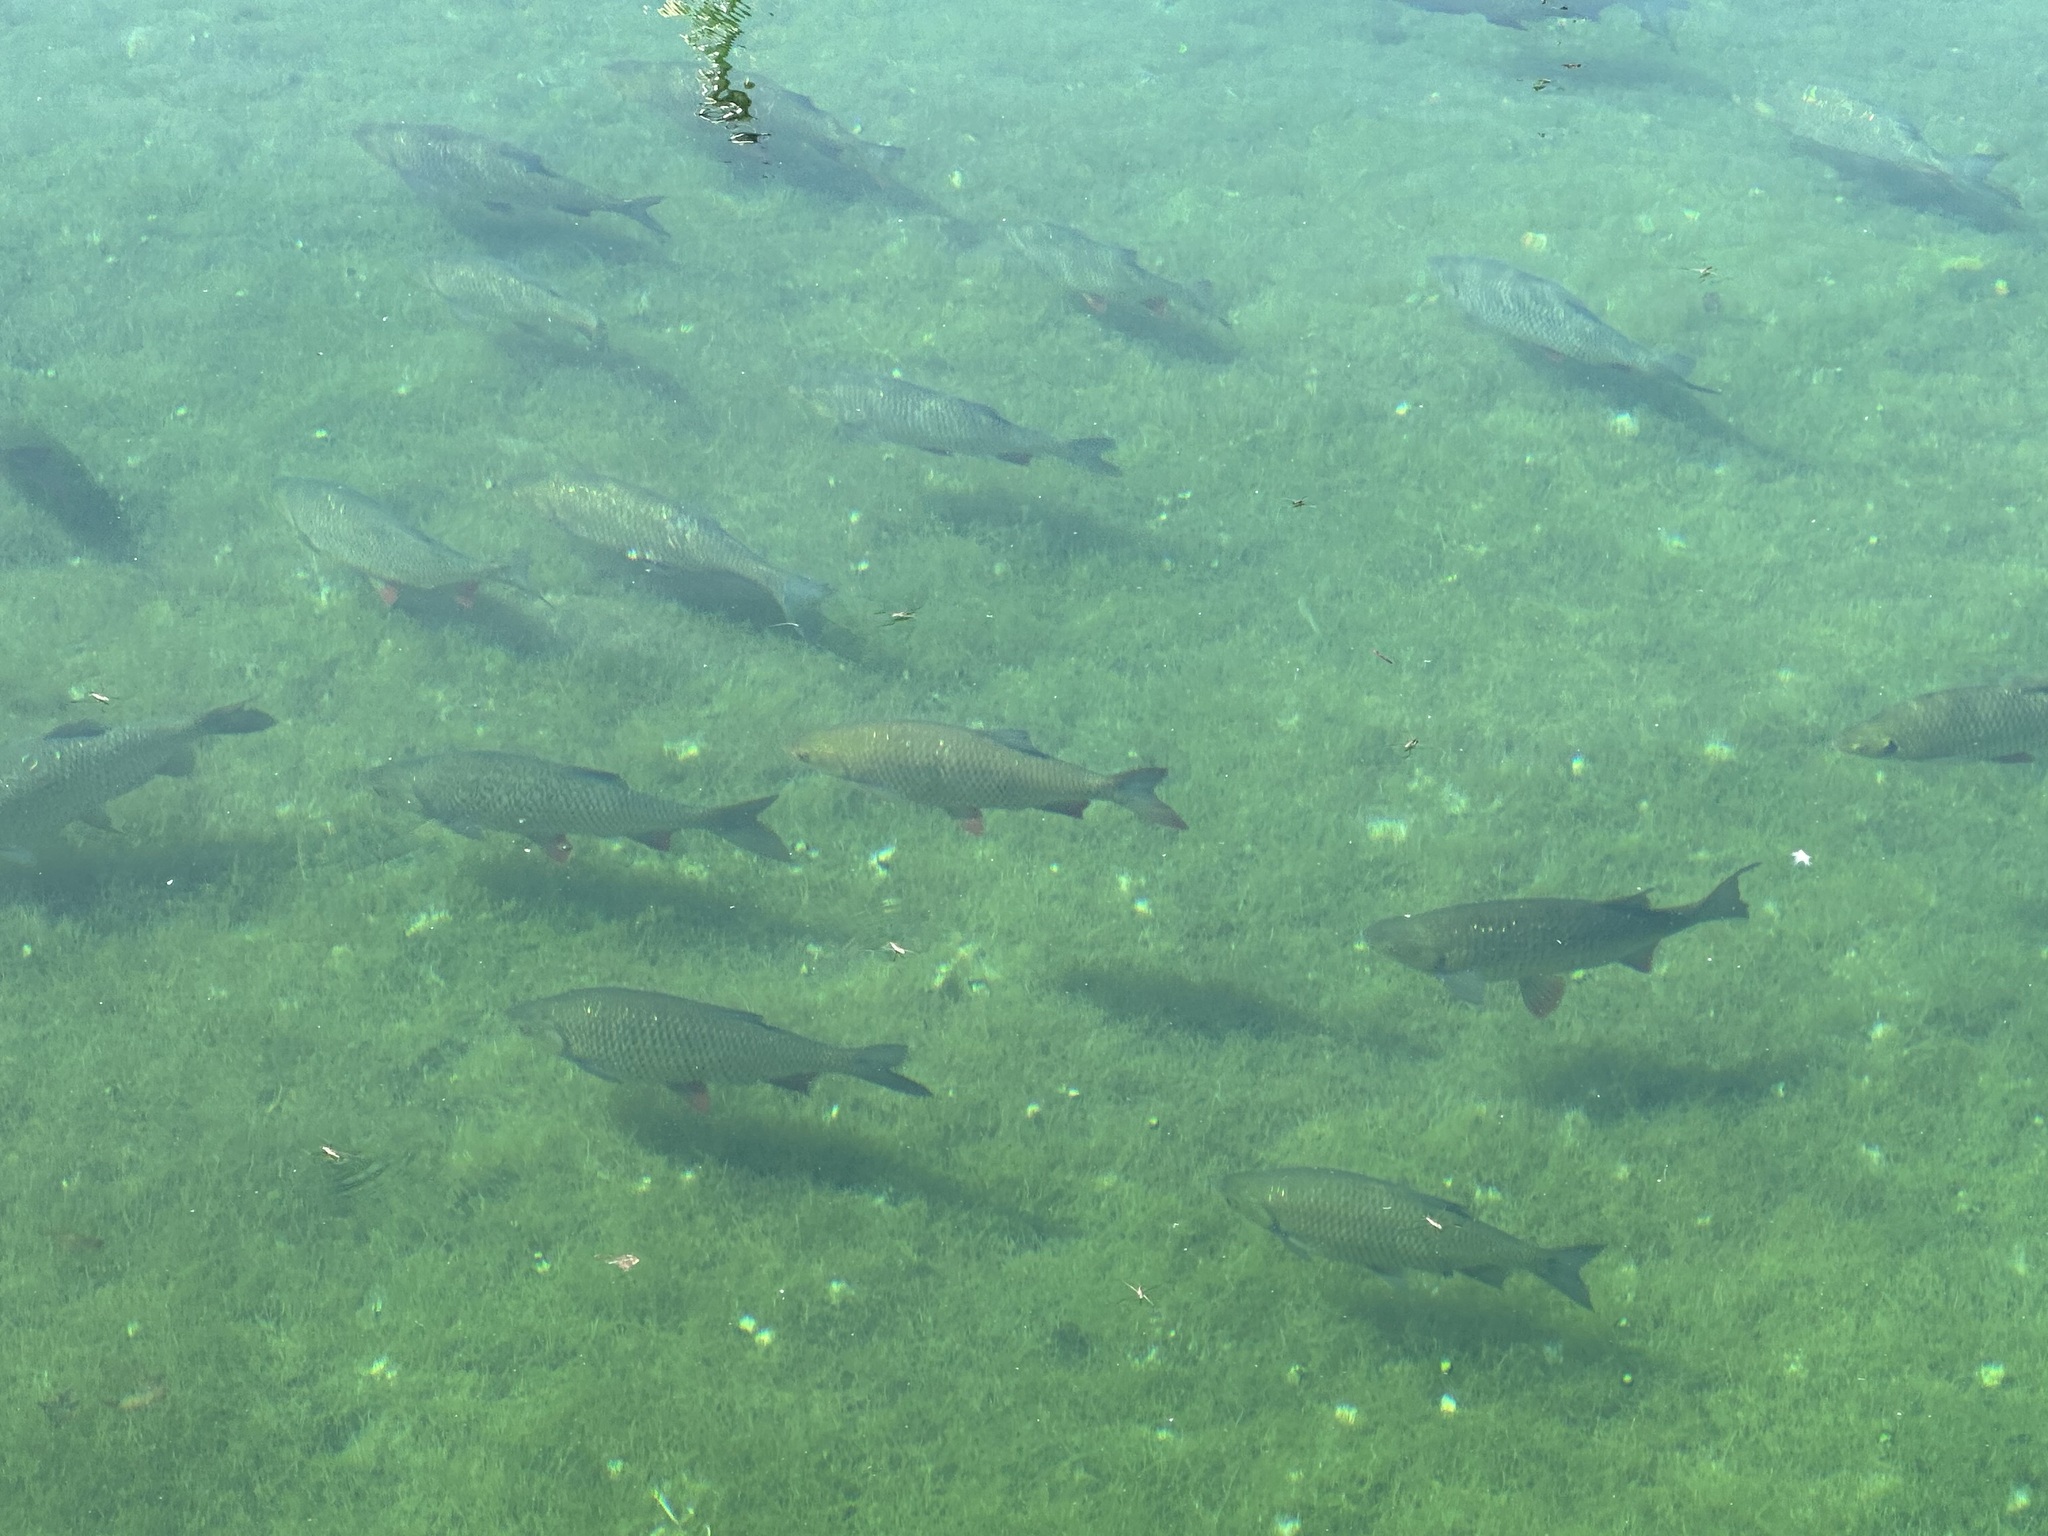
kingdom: Animalia
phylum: Chordata
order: Cypriniformes
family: Cyprinidae
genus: Scardinius
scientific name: Scardinius erythrophthalmus
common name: Rudd
